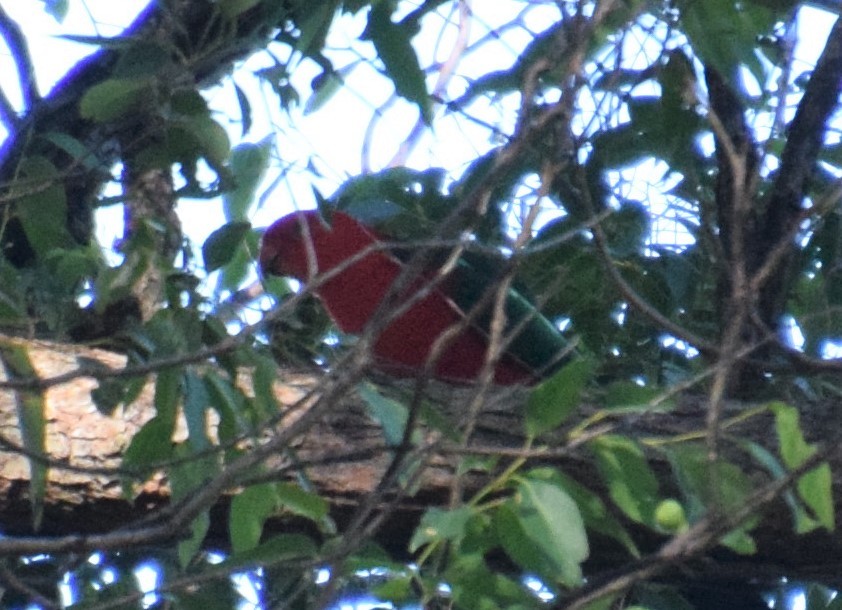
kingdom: Animalia
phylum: Chordata
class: Aves
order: Psittaciformes
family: Psittacidae
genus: Alisterus
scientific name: Alisterus scapularis
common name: Australian king parrot
